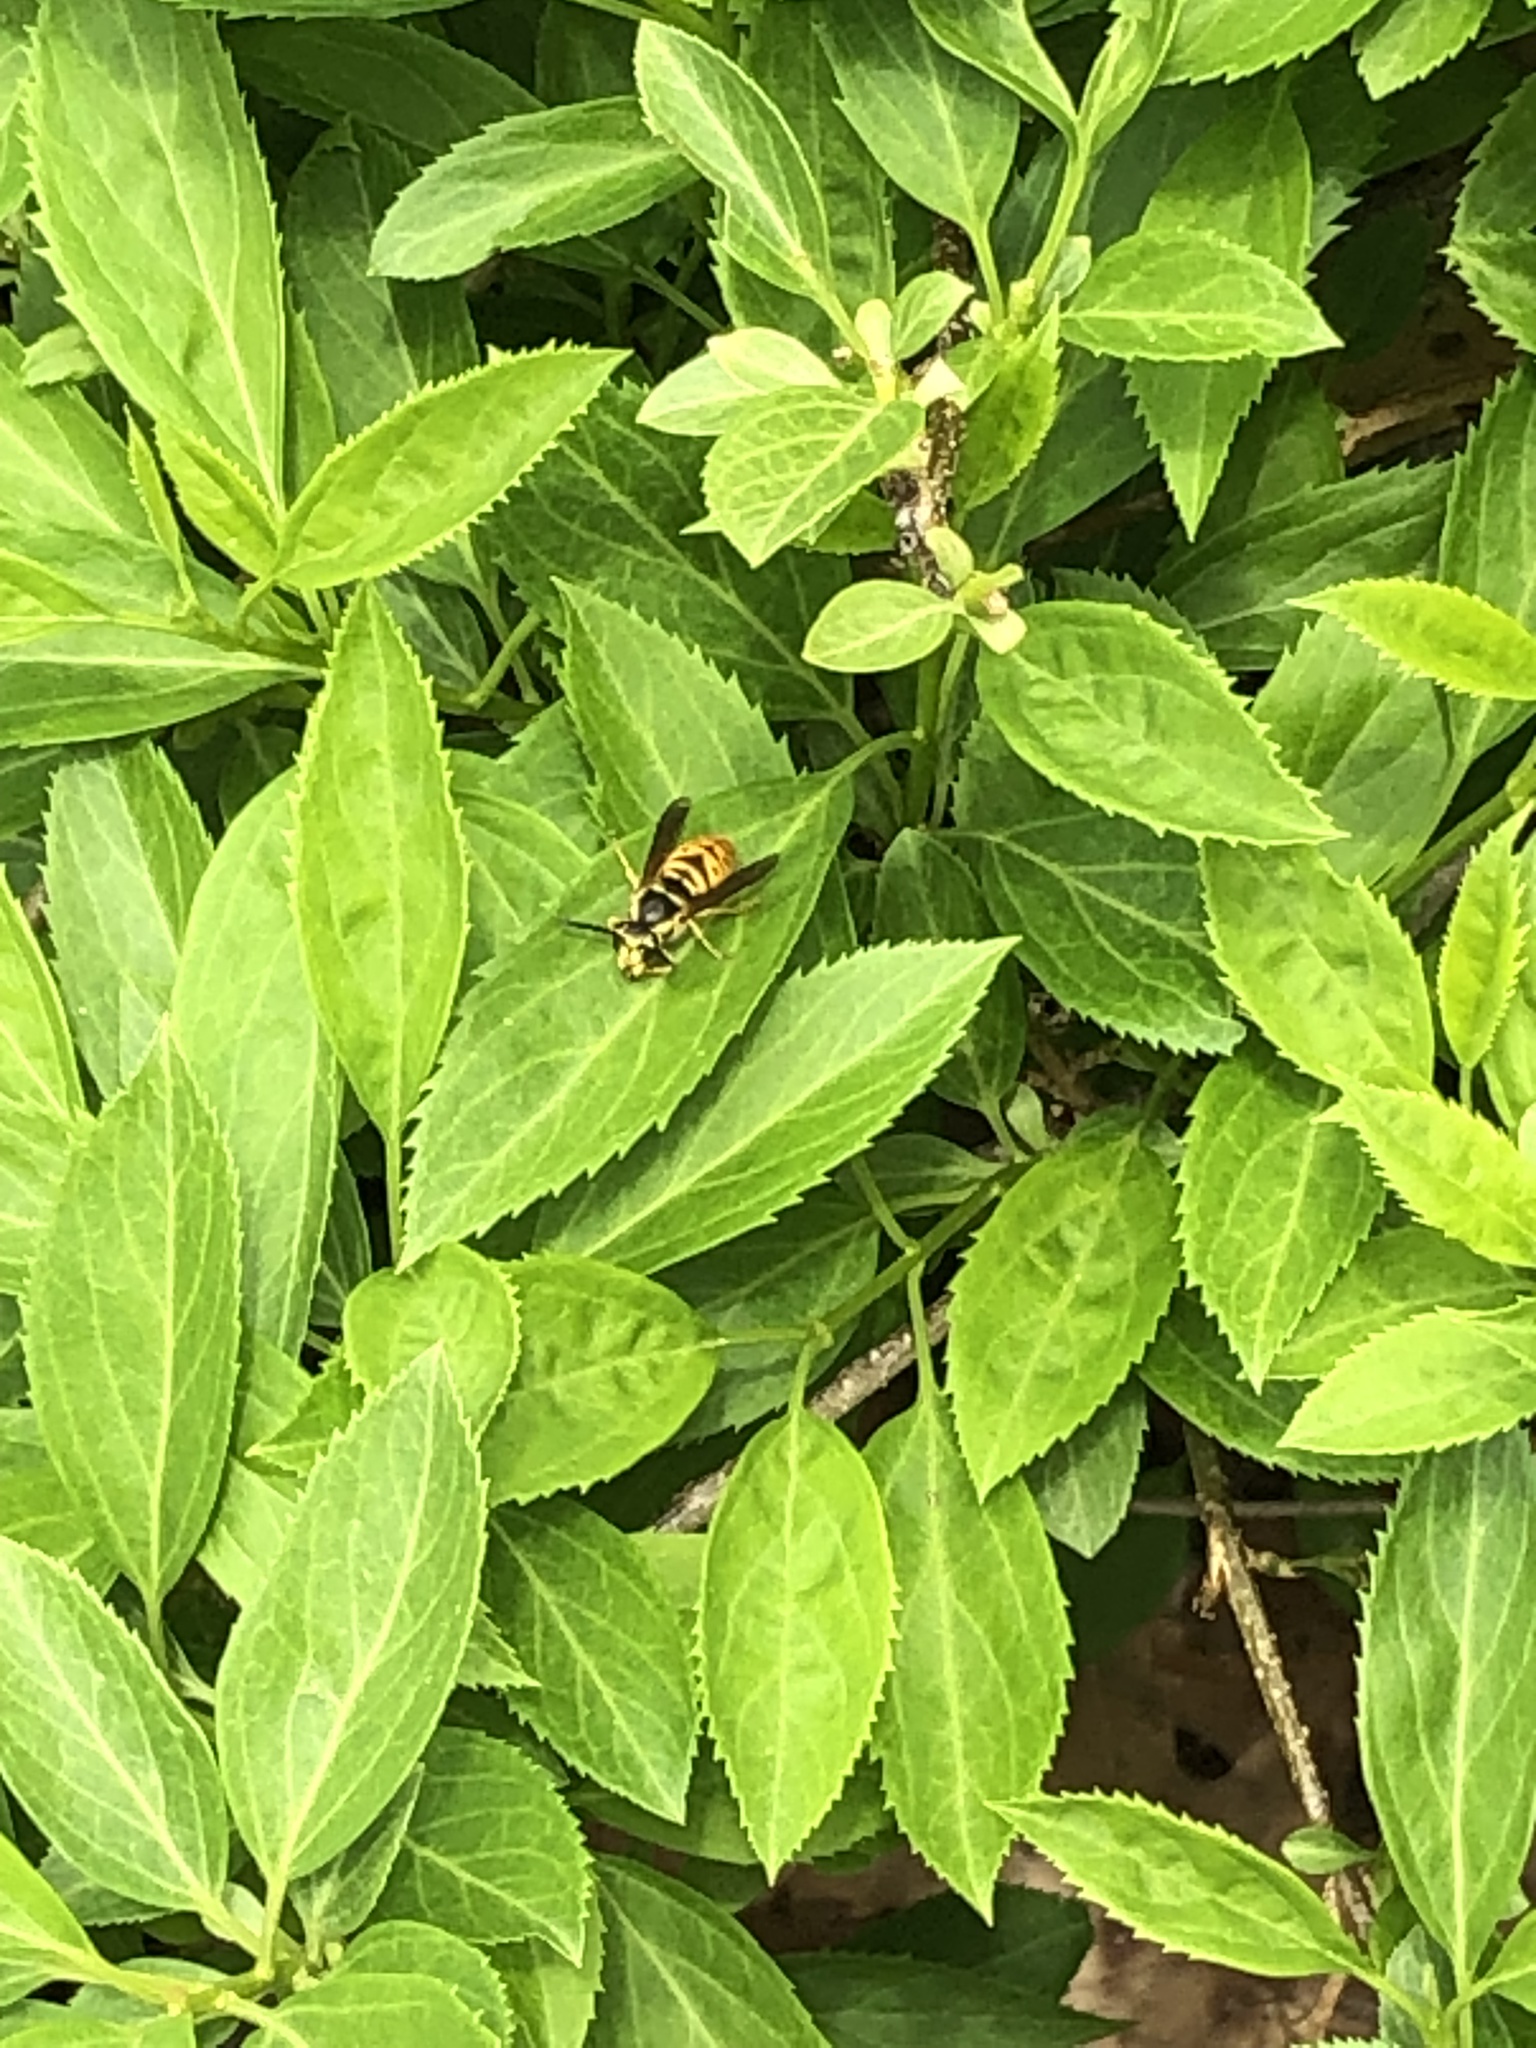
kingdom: Animalia
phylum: Arthropoda
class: Insecta
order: Hymenoptera
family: Vespidae
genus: Vespula
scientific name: Vespula maculifrons
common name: Eastern yellowjacket
